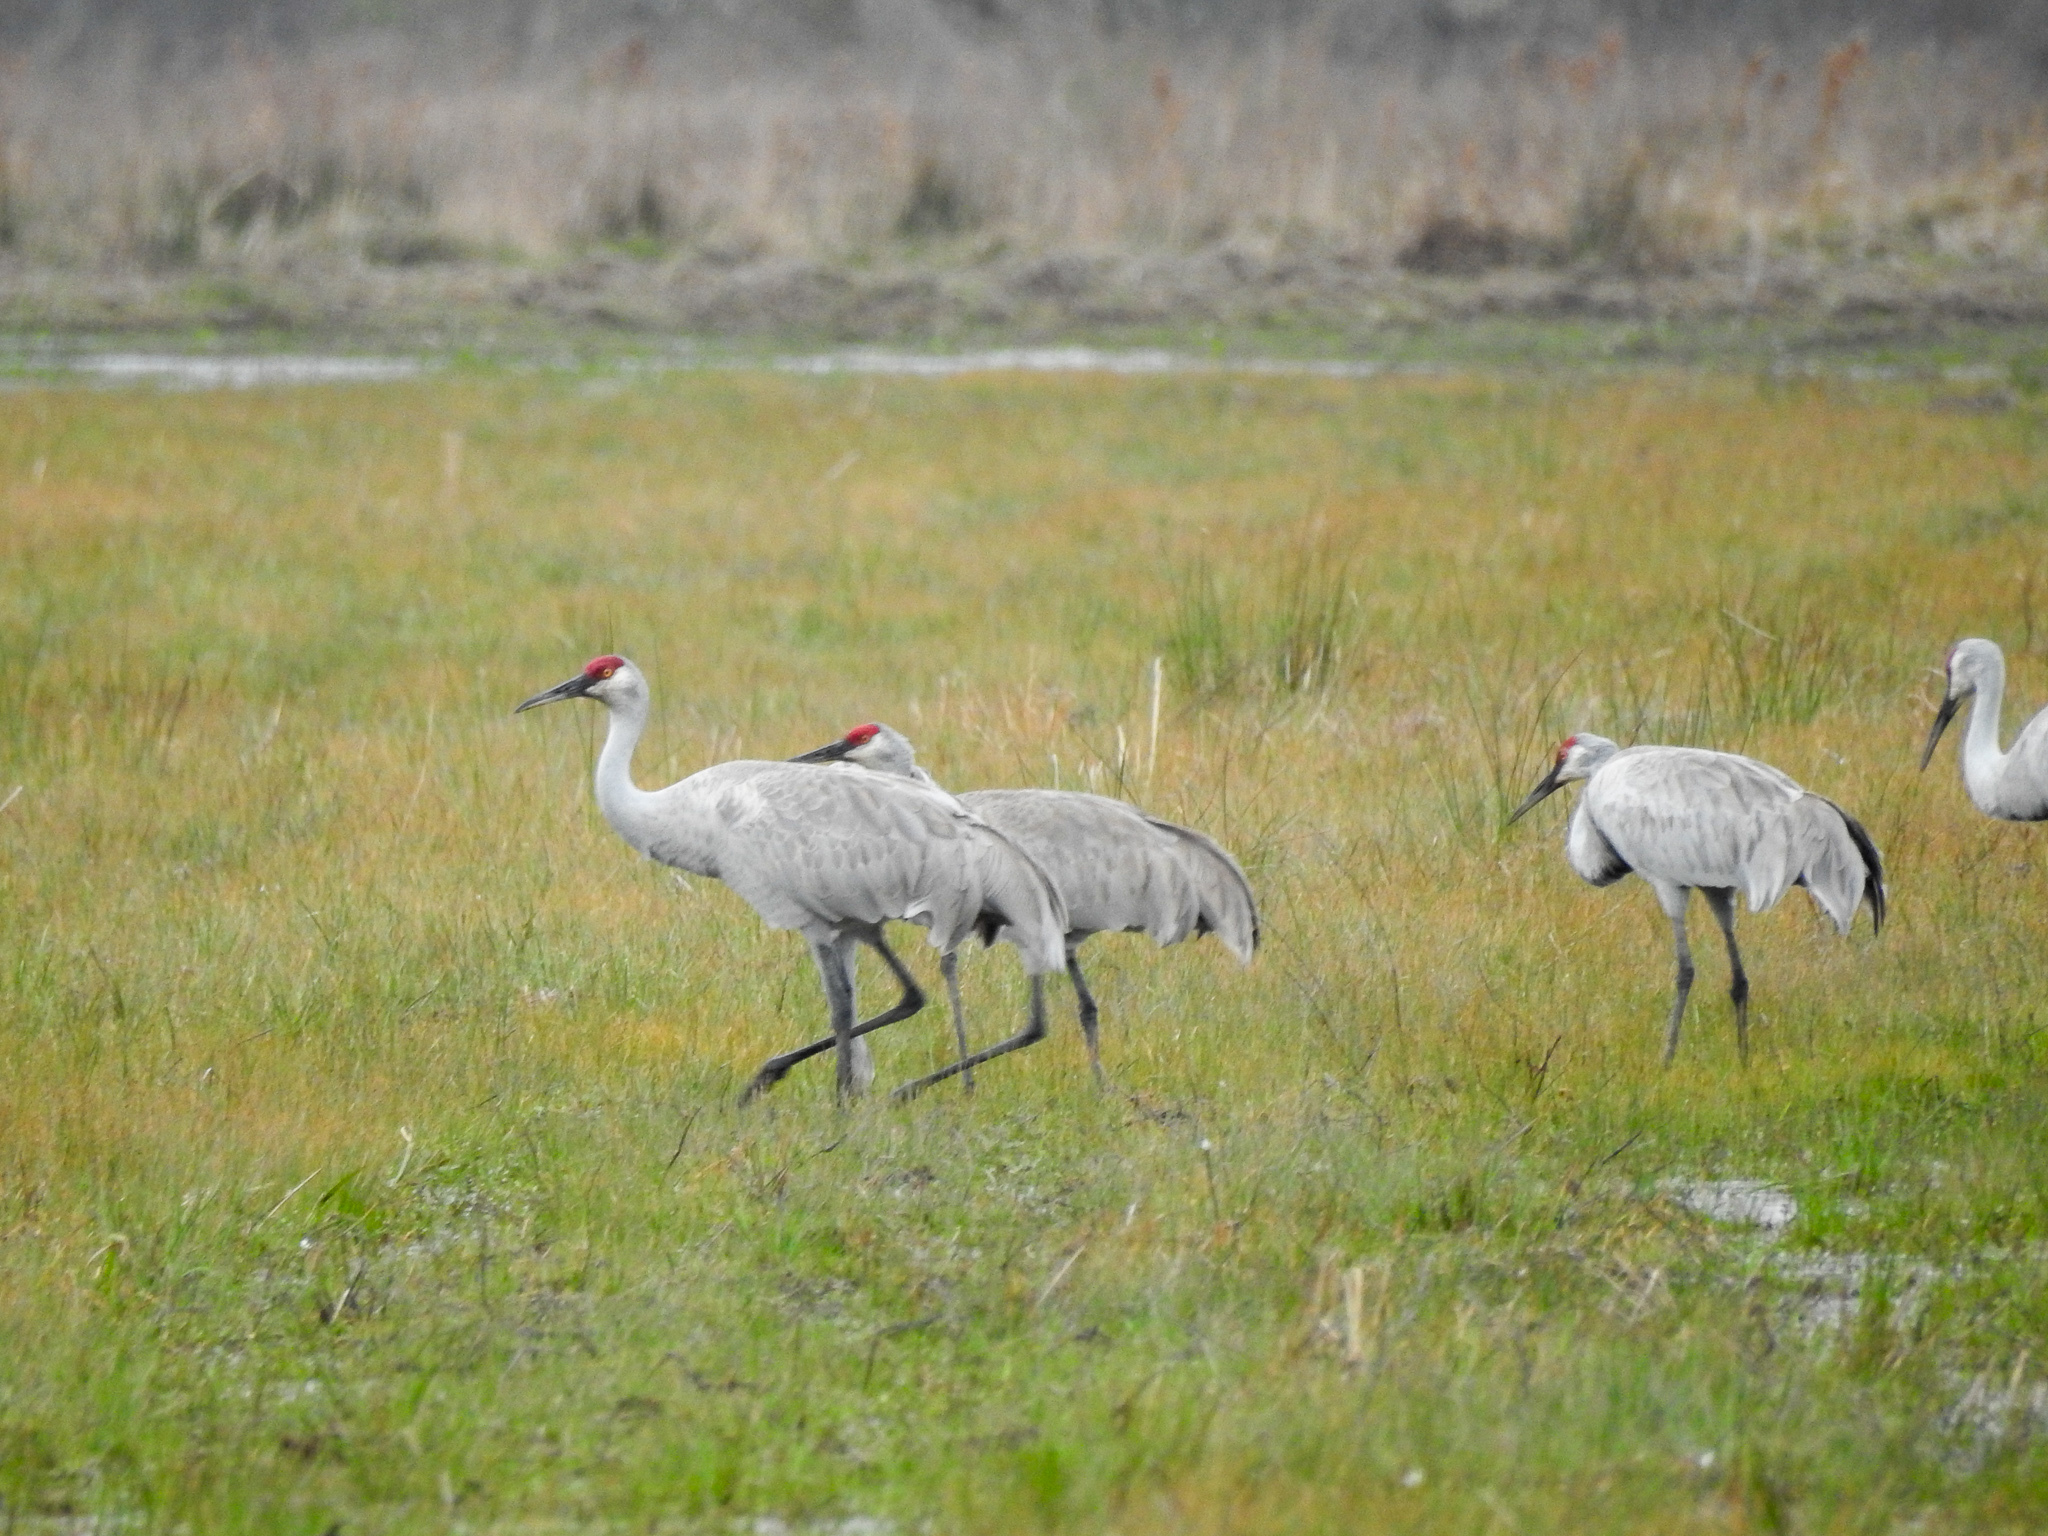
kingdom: Animalia
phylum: Chordata
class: Aves
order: Gruiformes
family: Gruidae
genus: Grus
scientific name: Grus canadensis
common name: Sandhill crane
